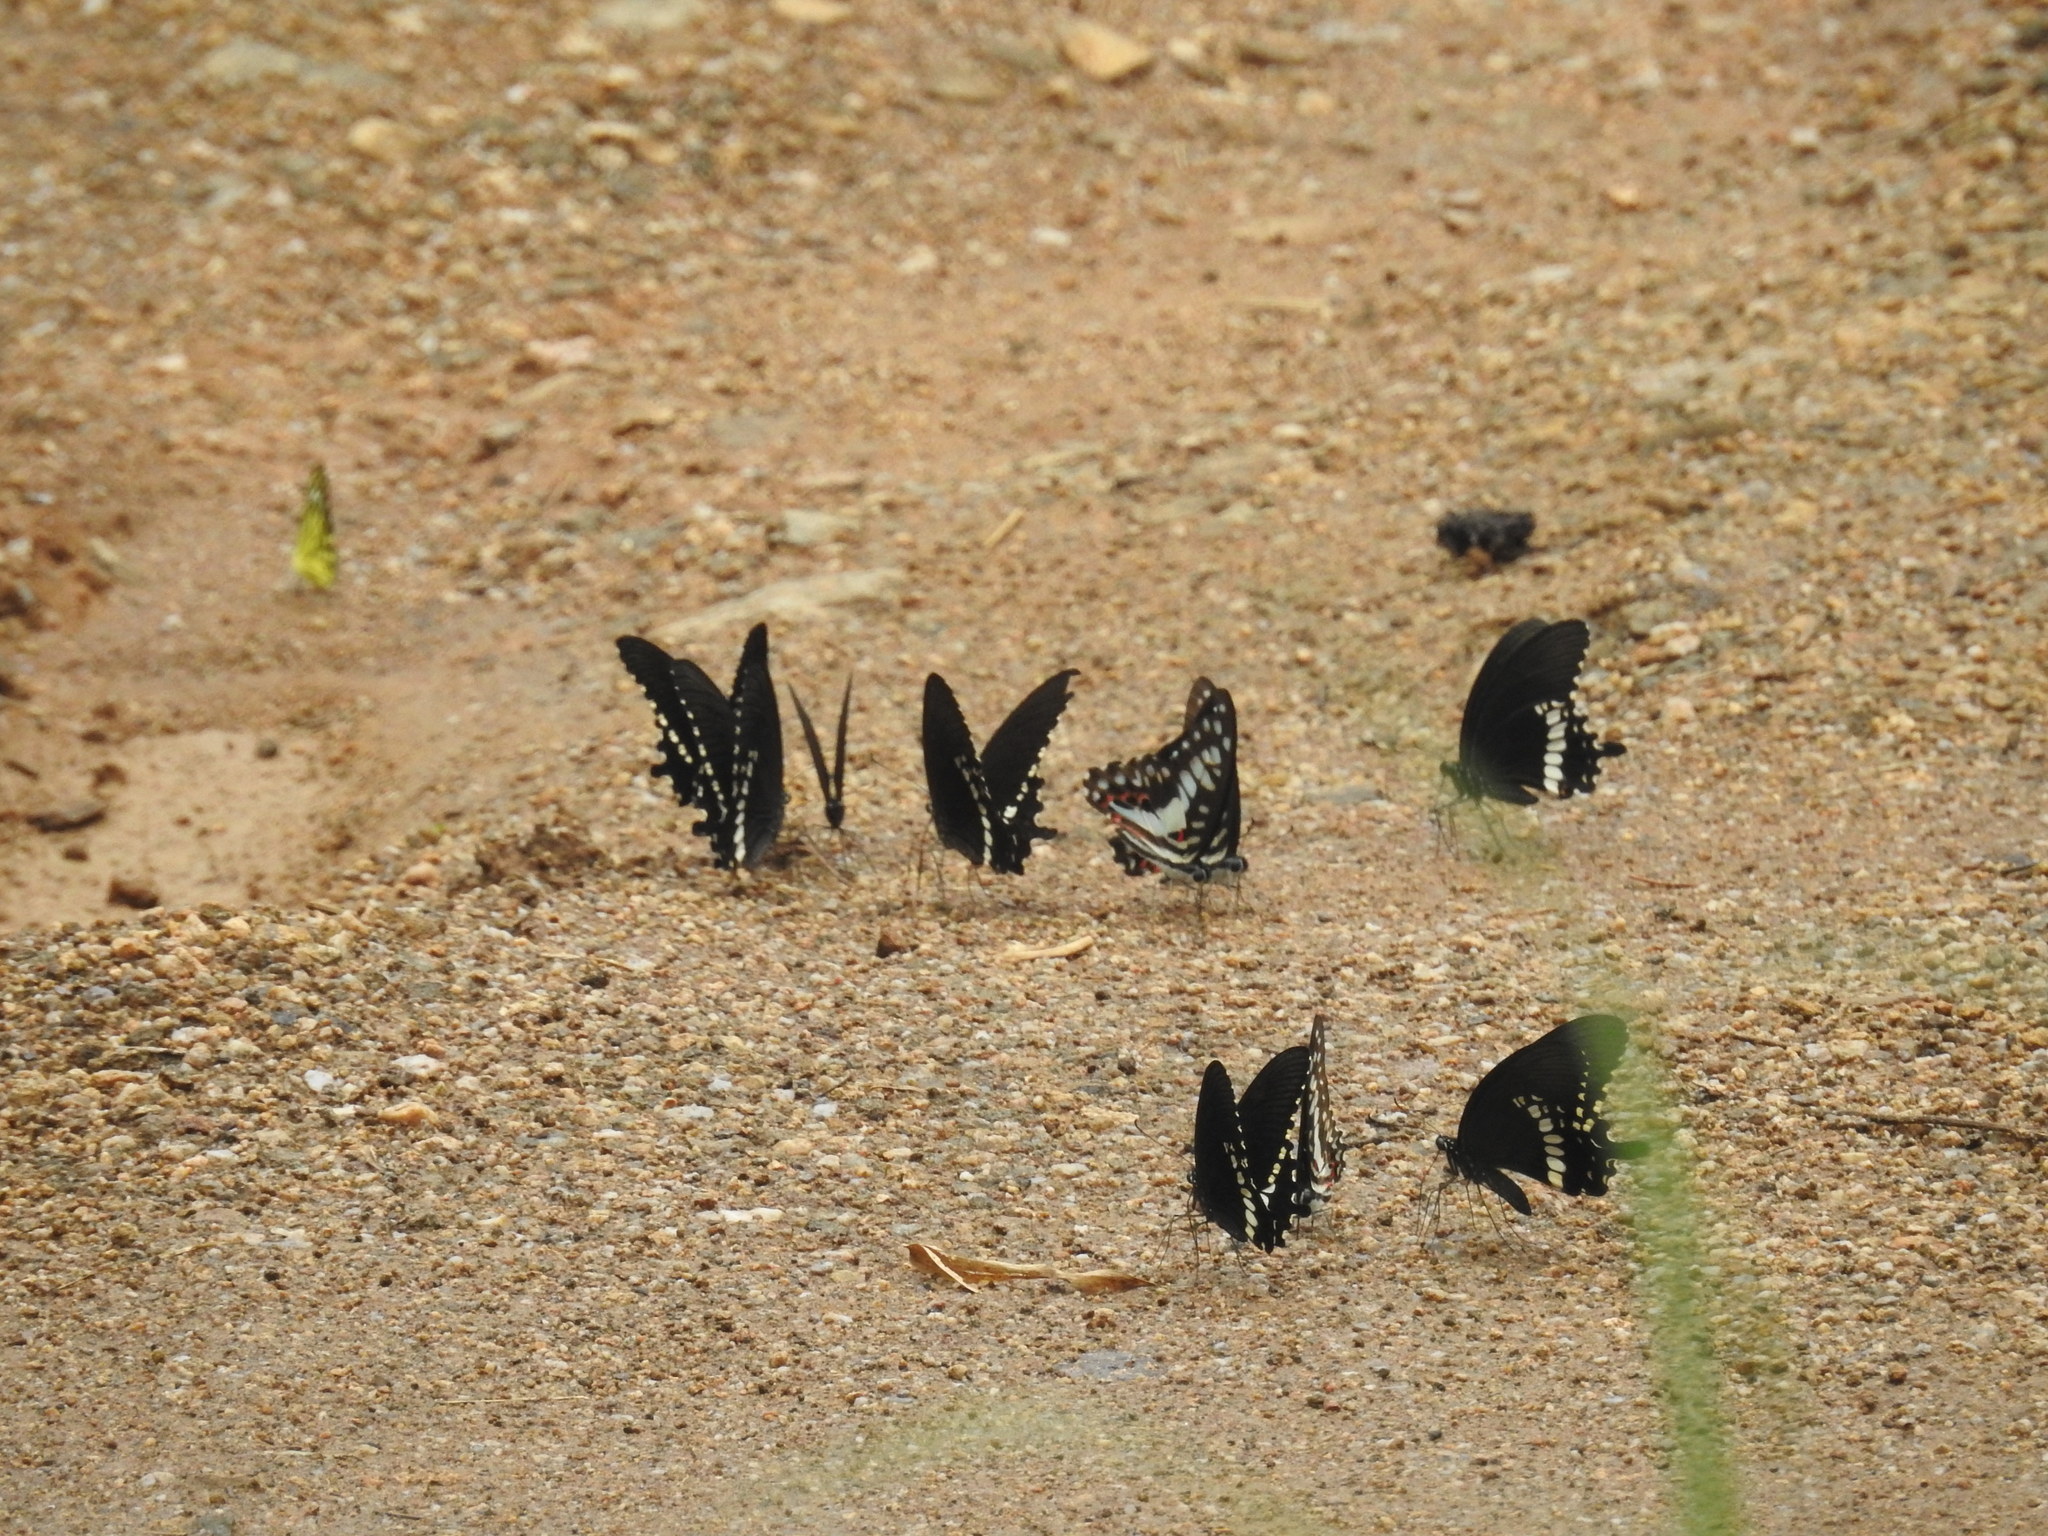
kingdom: Animalia
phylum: Arthropoda
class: Insecta
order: Lepidoptera
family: Papilionidae
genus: Graphium
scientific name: Graphium doson
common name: Common jay
